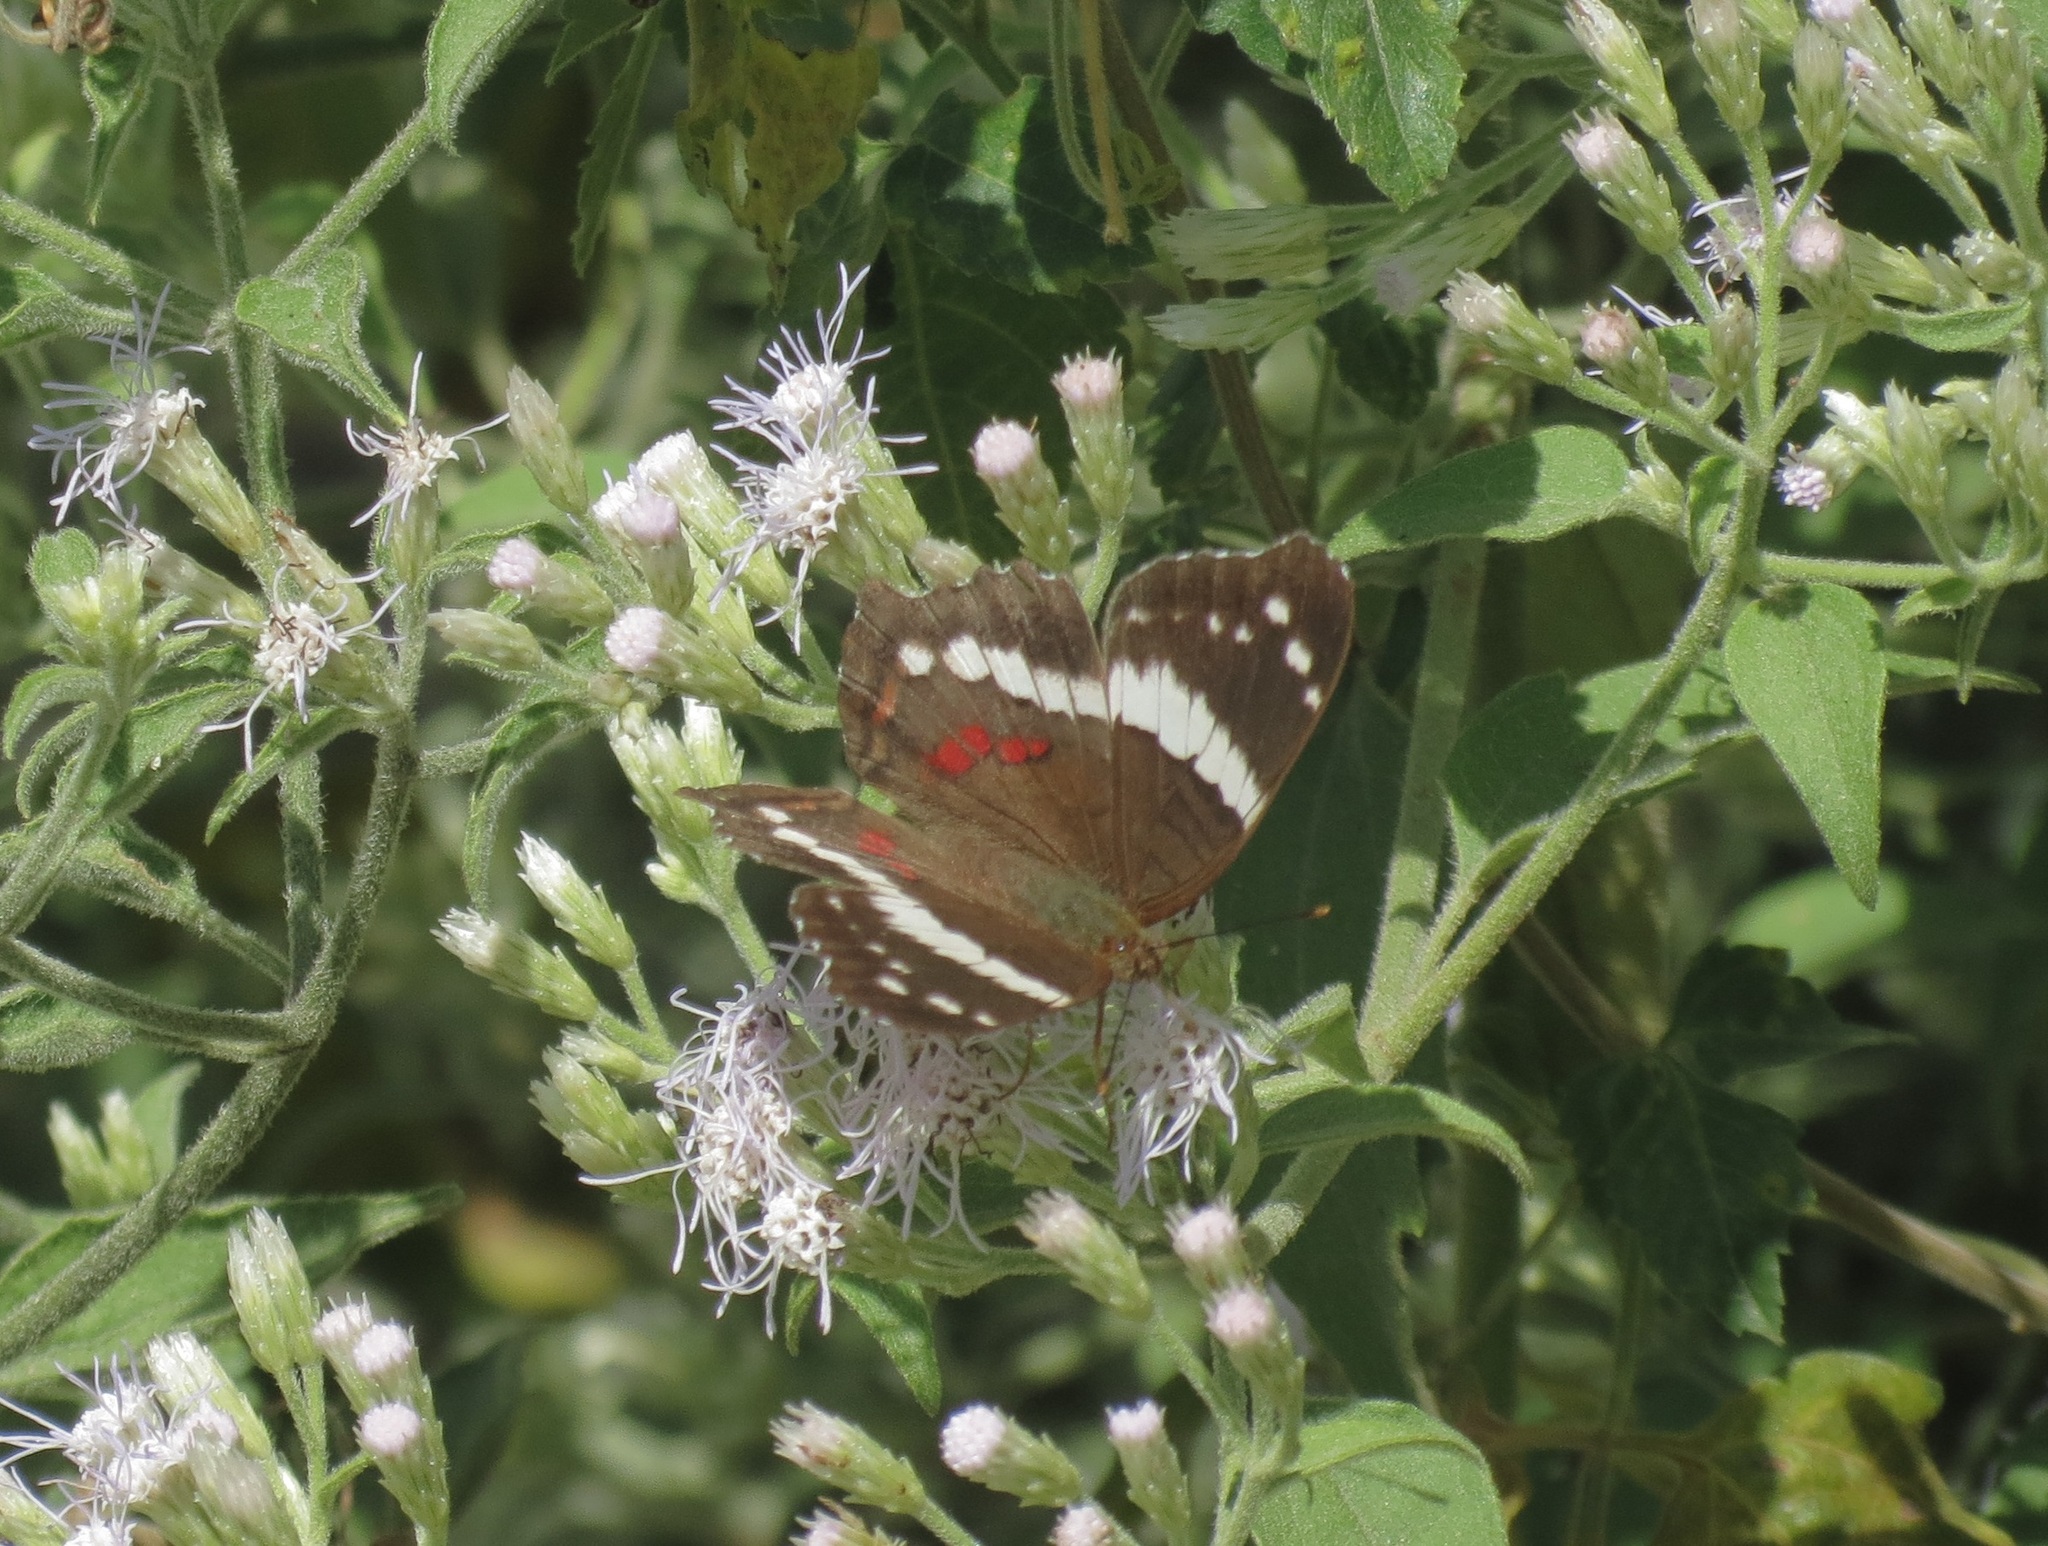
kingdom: Animalia
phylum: Arthropoda
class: Insecta
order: Lepidoptera
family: Nymphalidae
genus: Anartia
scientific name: Anartia fatima
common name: Banded peacock
